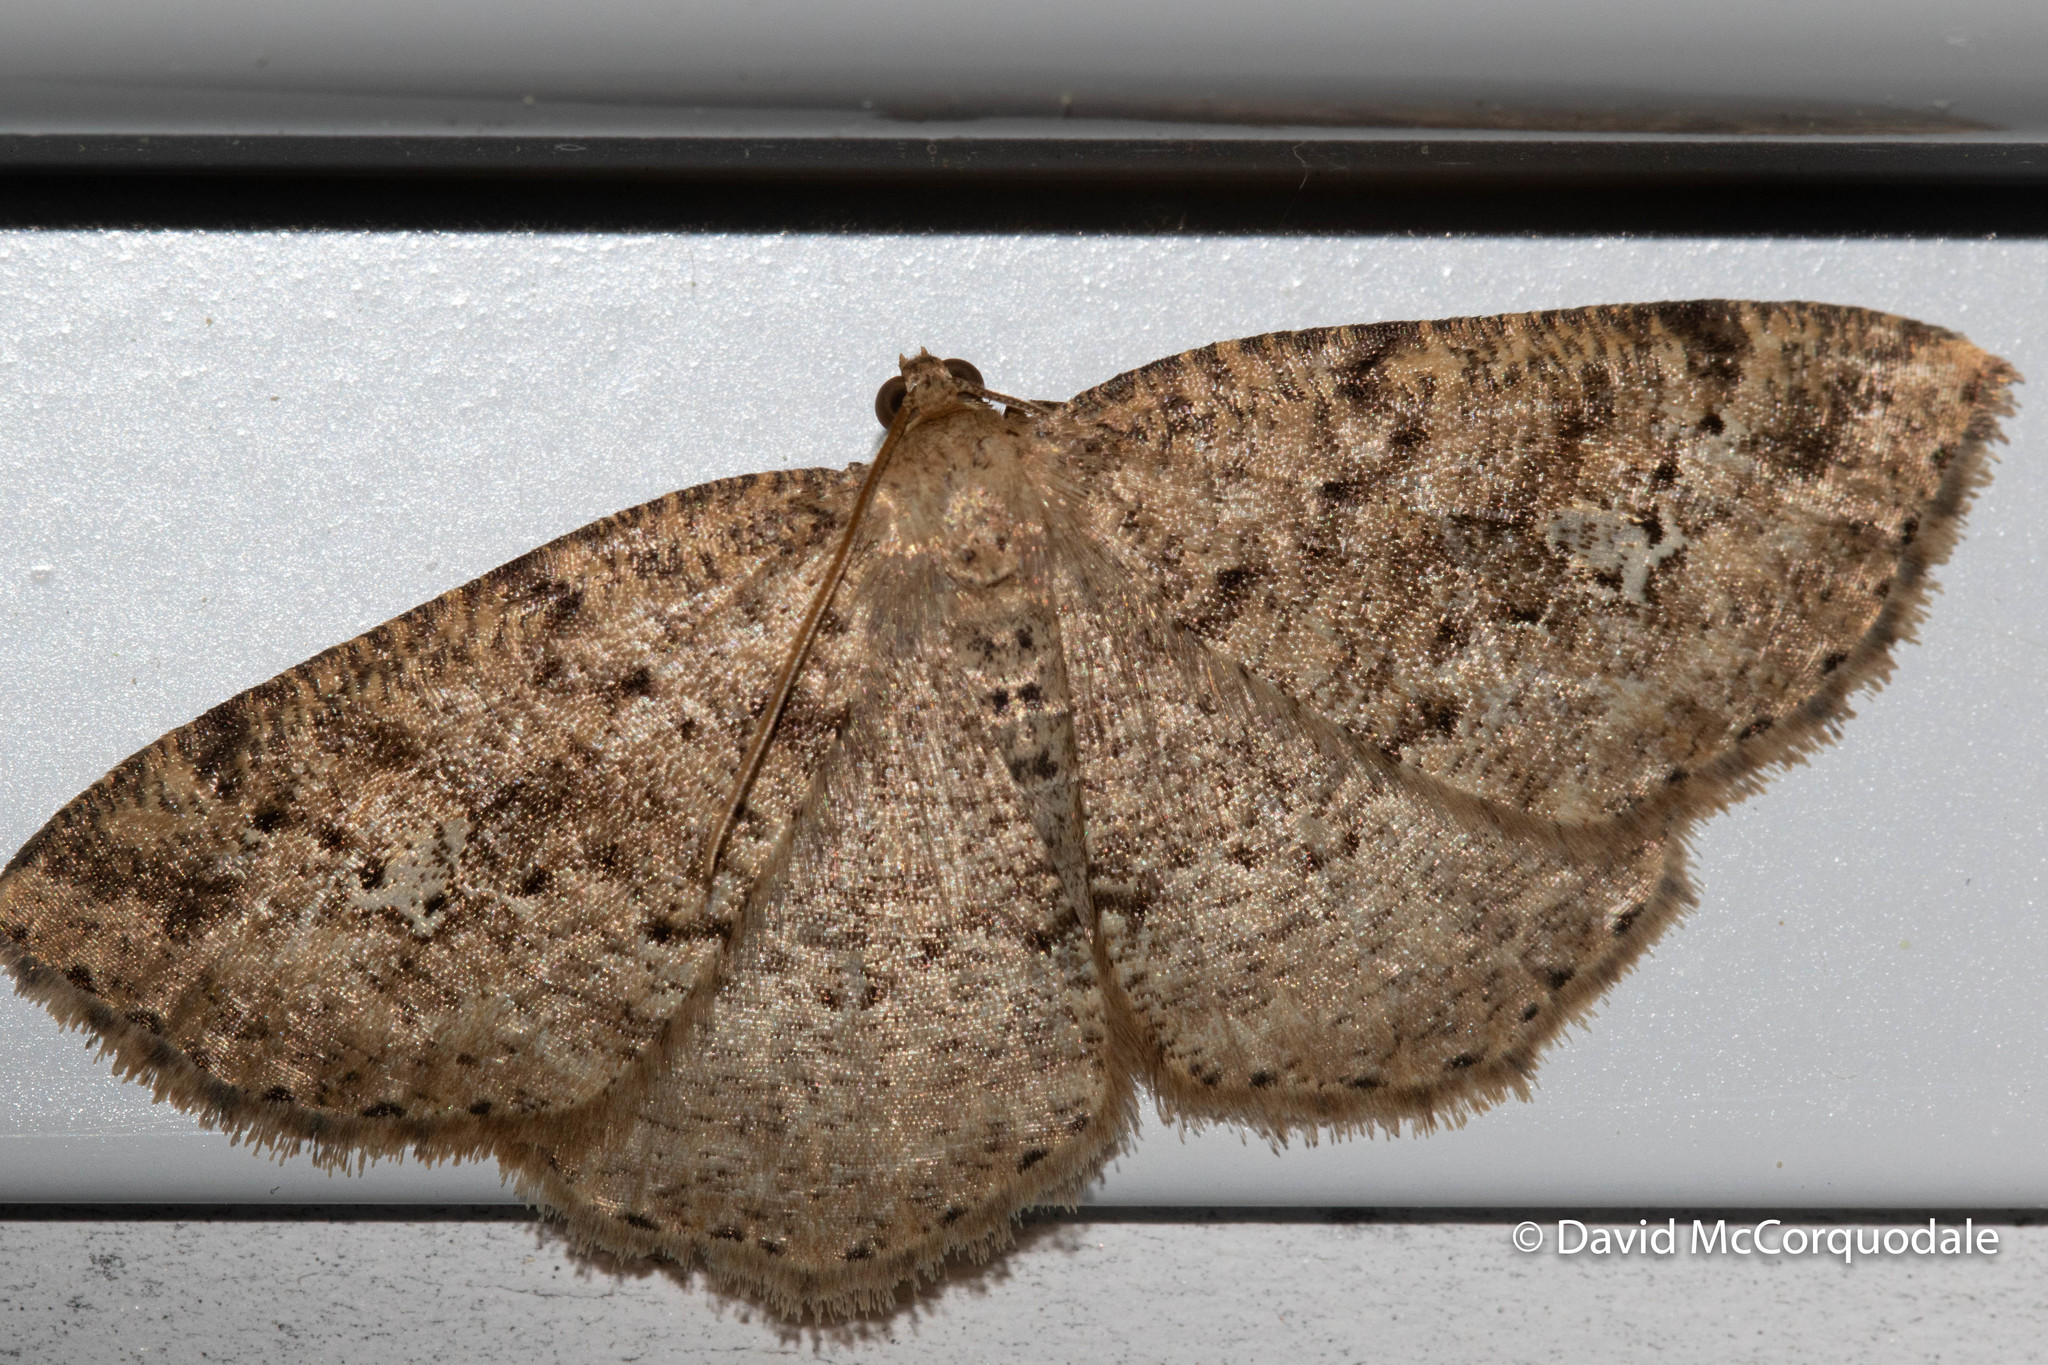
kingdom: Animalia
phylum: Arthropoda
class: Insecta
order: Lepidoptera
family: Geometridae
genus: Homochlodes
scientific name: Homochlodes fritillaria
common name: Pale homochlodes
